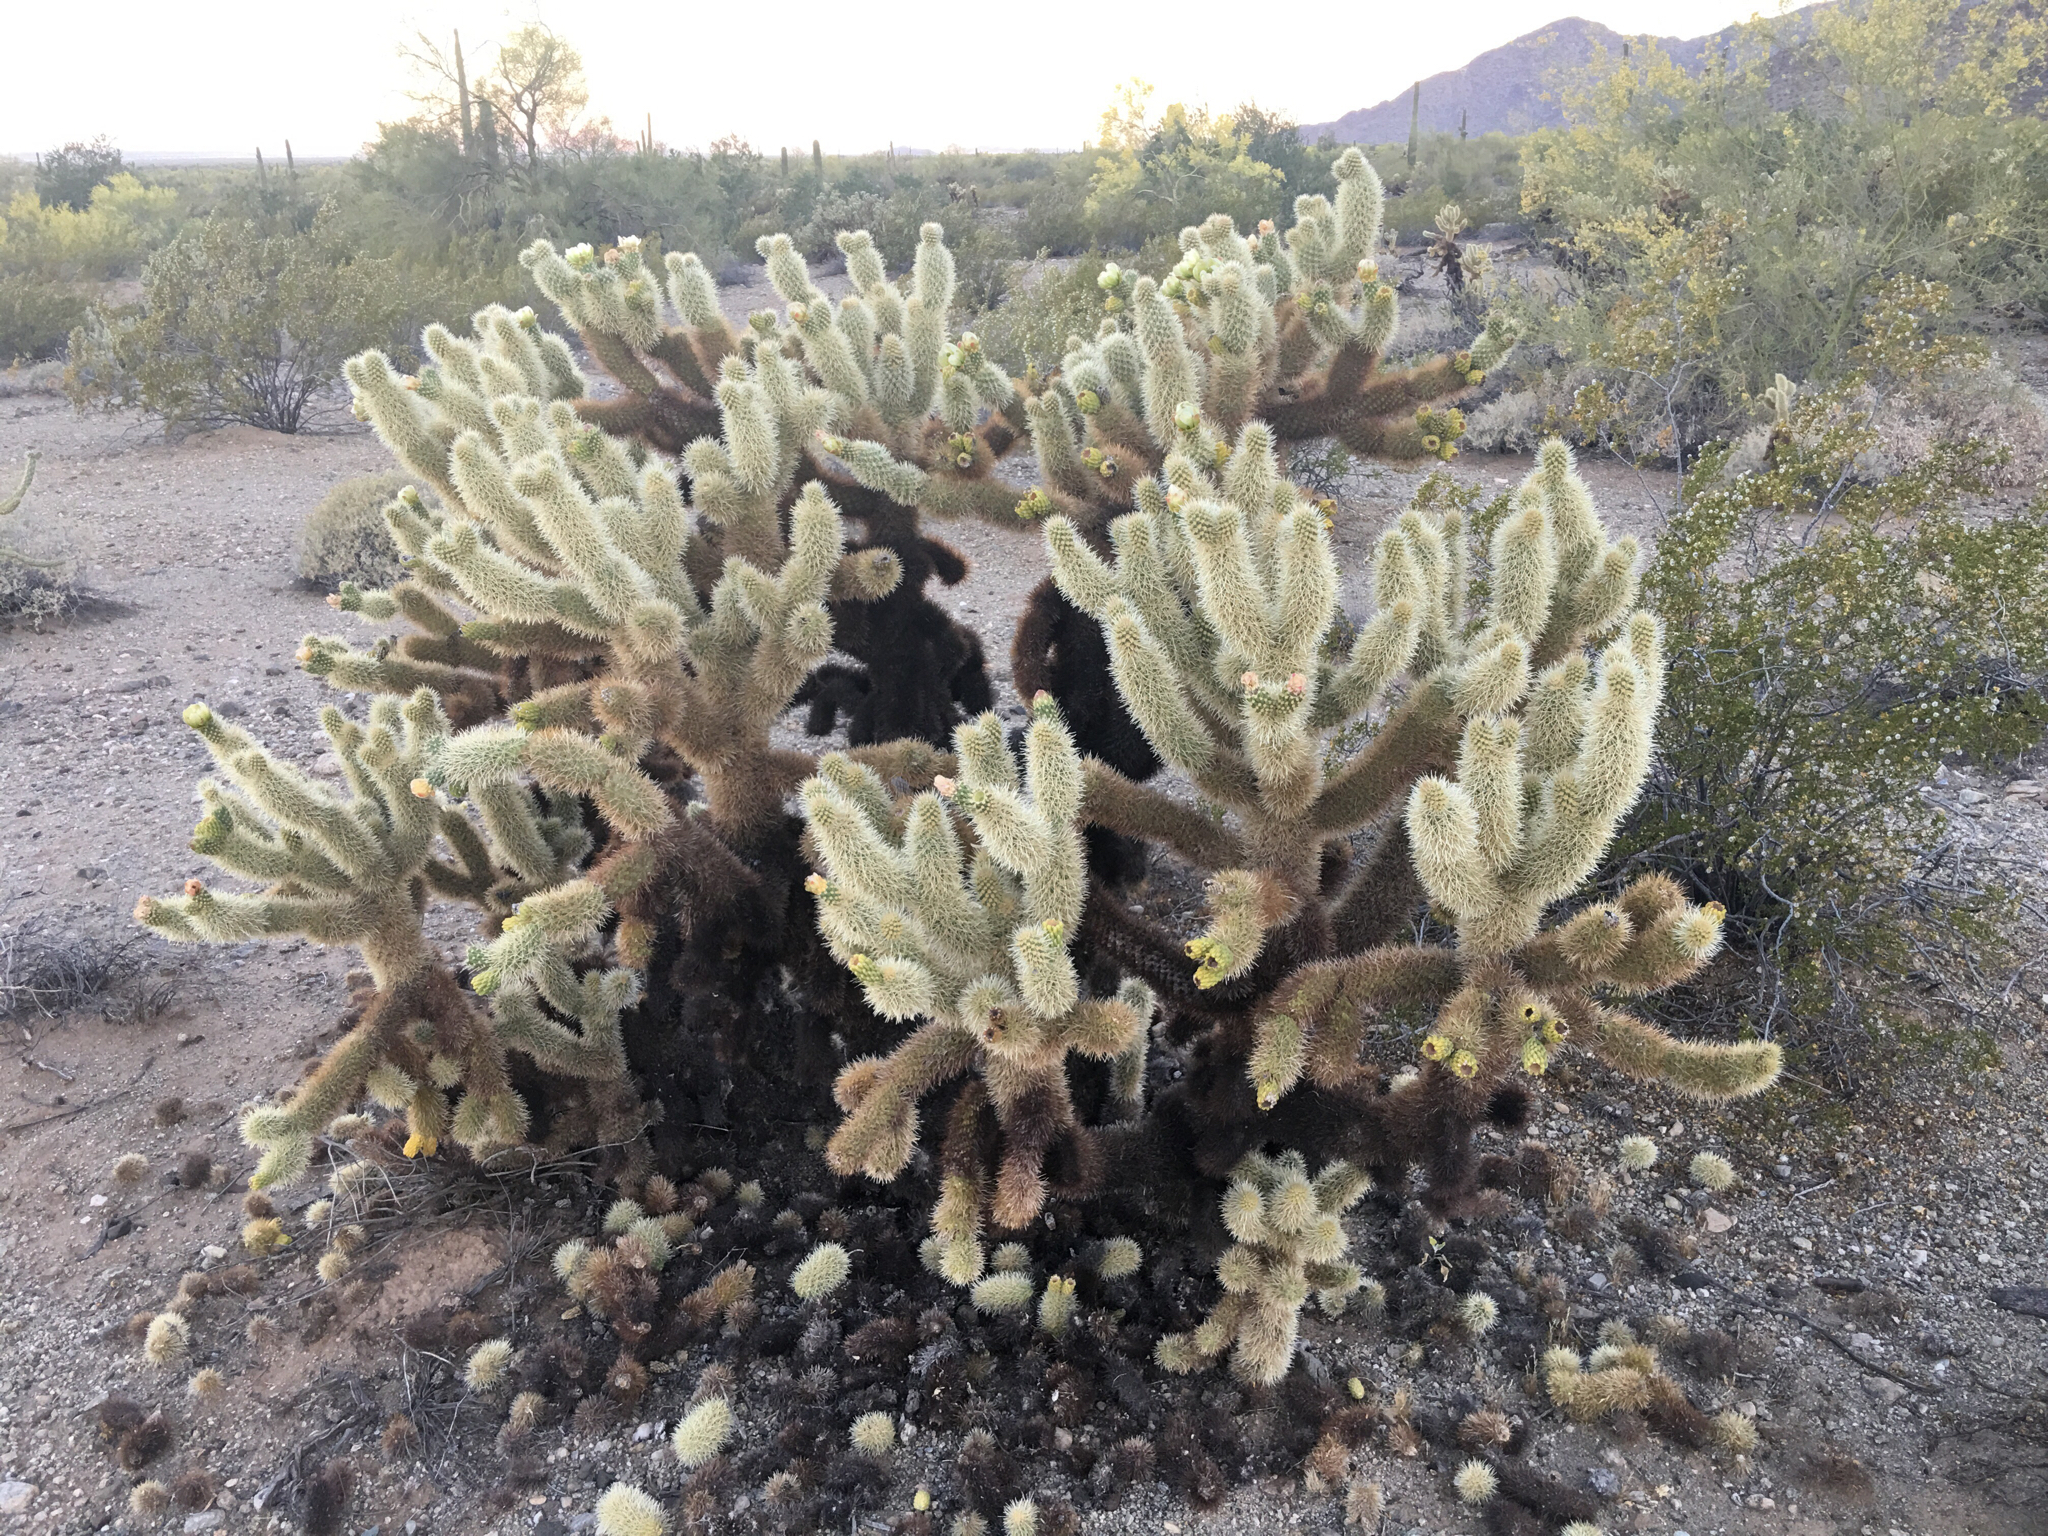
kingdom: Plantae
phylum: Tracheophyta
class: Magnoliopsida
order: Caryophyllales
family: Cactaceae
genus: Cylindropuntia
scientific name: Cylindropuntia fosbergii
